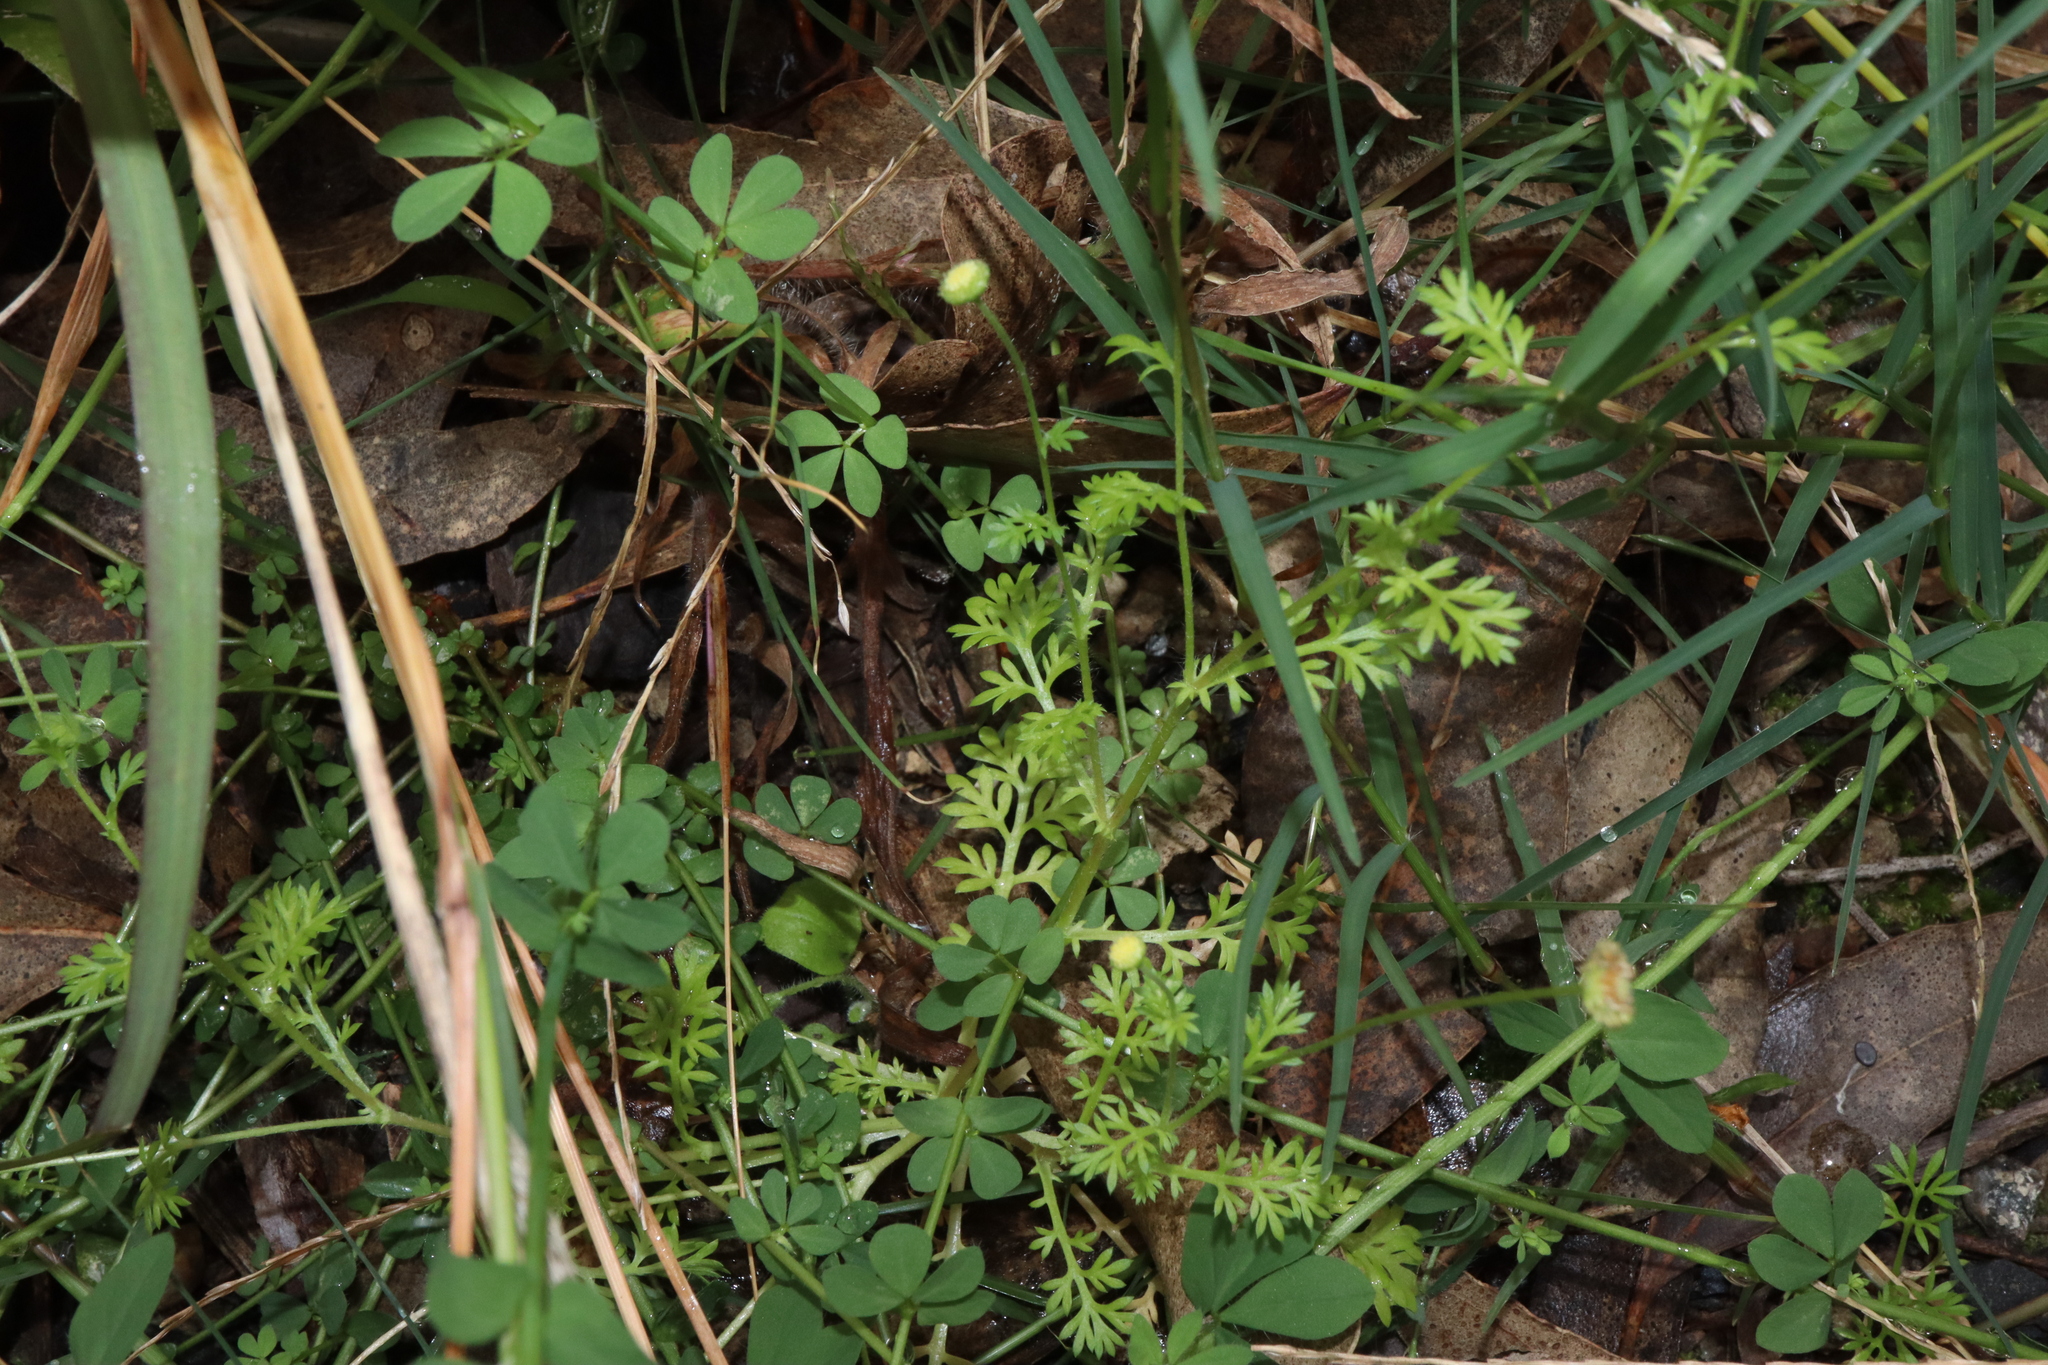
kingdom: Plantae
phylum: Tracheophyta
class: Magnoliopsida
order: Asterales
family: Asteraceae
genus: Cotula
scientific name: Cotula australis
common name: Australian waterbuttons
